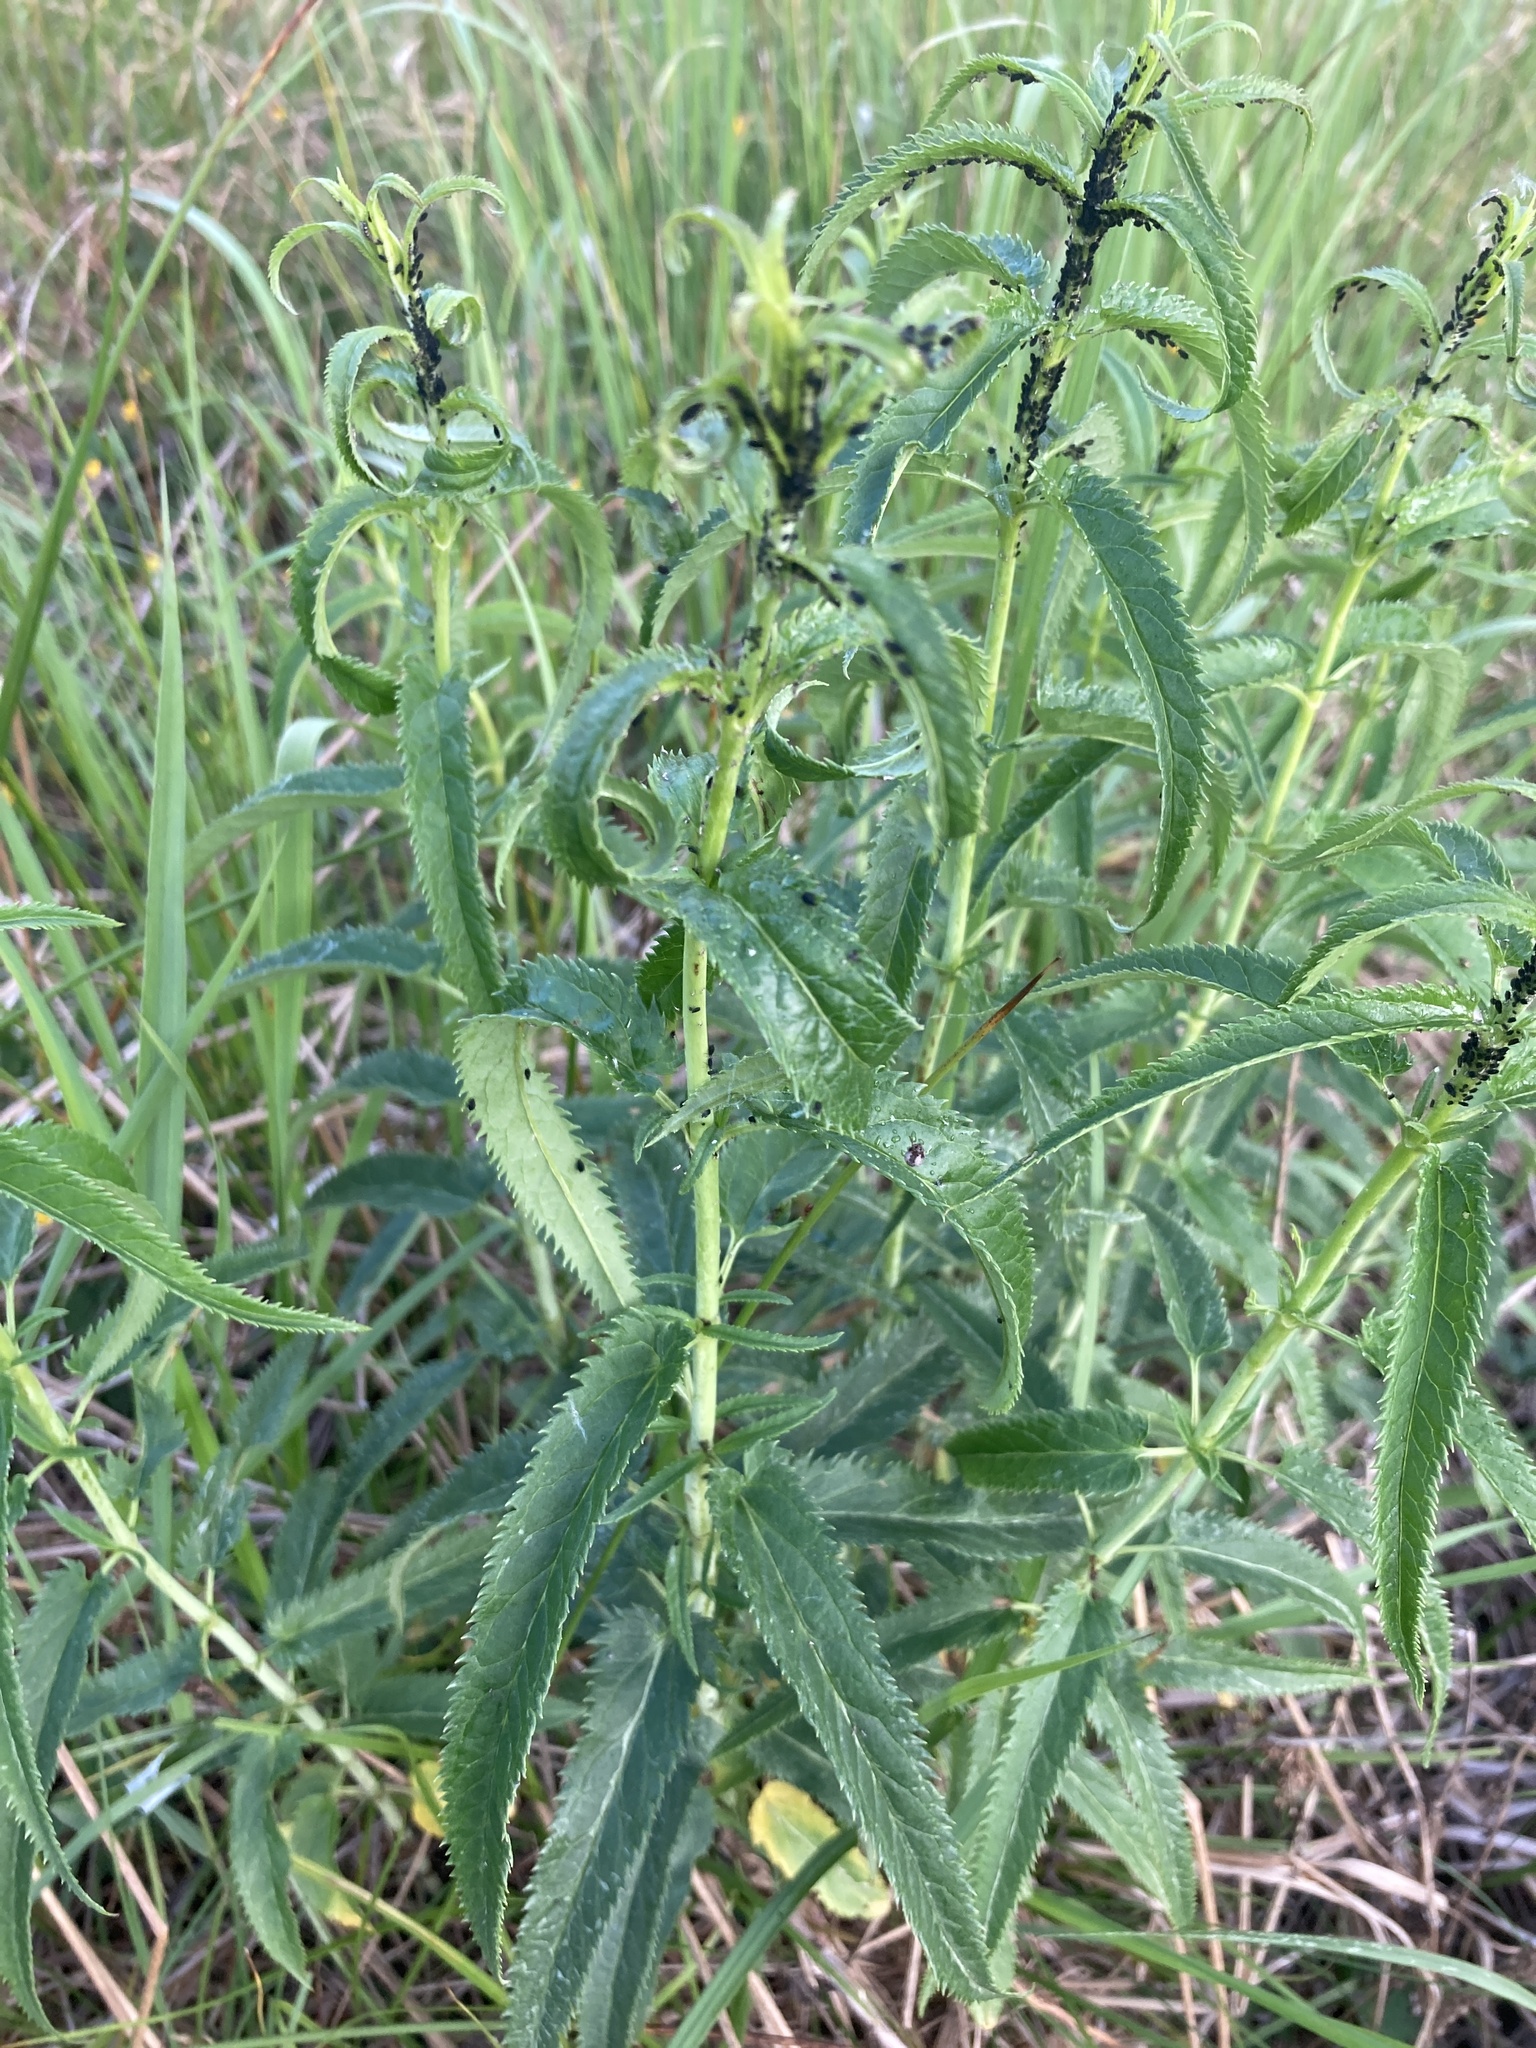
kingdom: Plantae
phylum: Tracheophyta
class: Magnoliopsida
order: Lamiales
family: Plantaginaceae
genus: Veronica
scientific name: Veronica longifolia
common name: Garden speedwell
